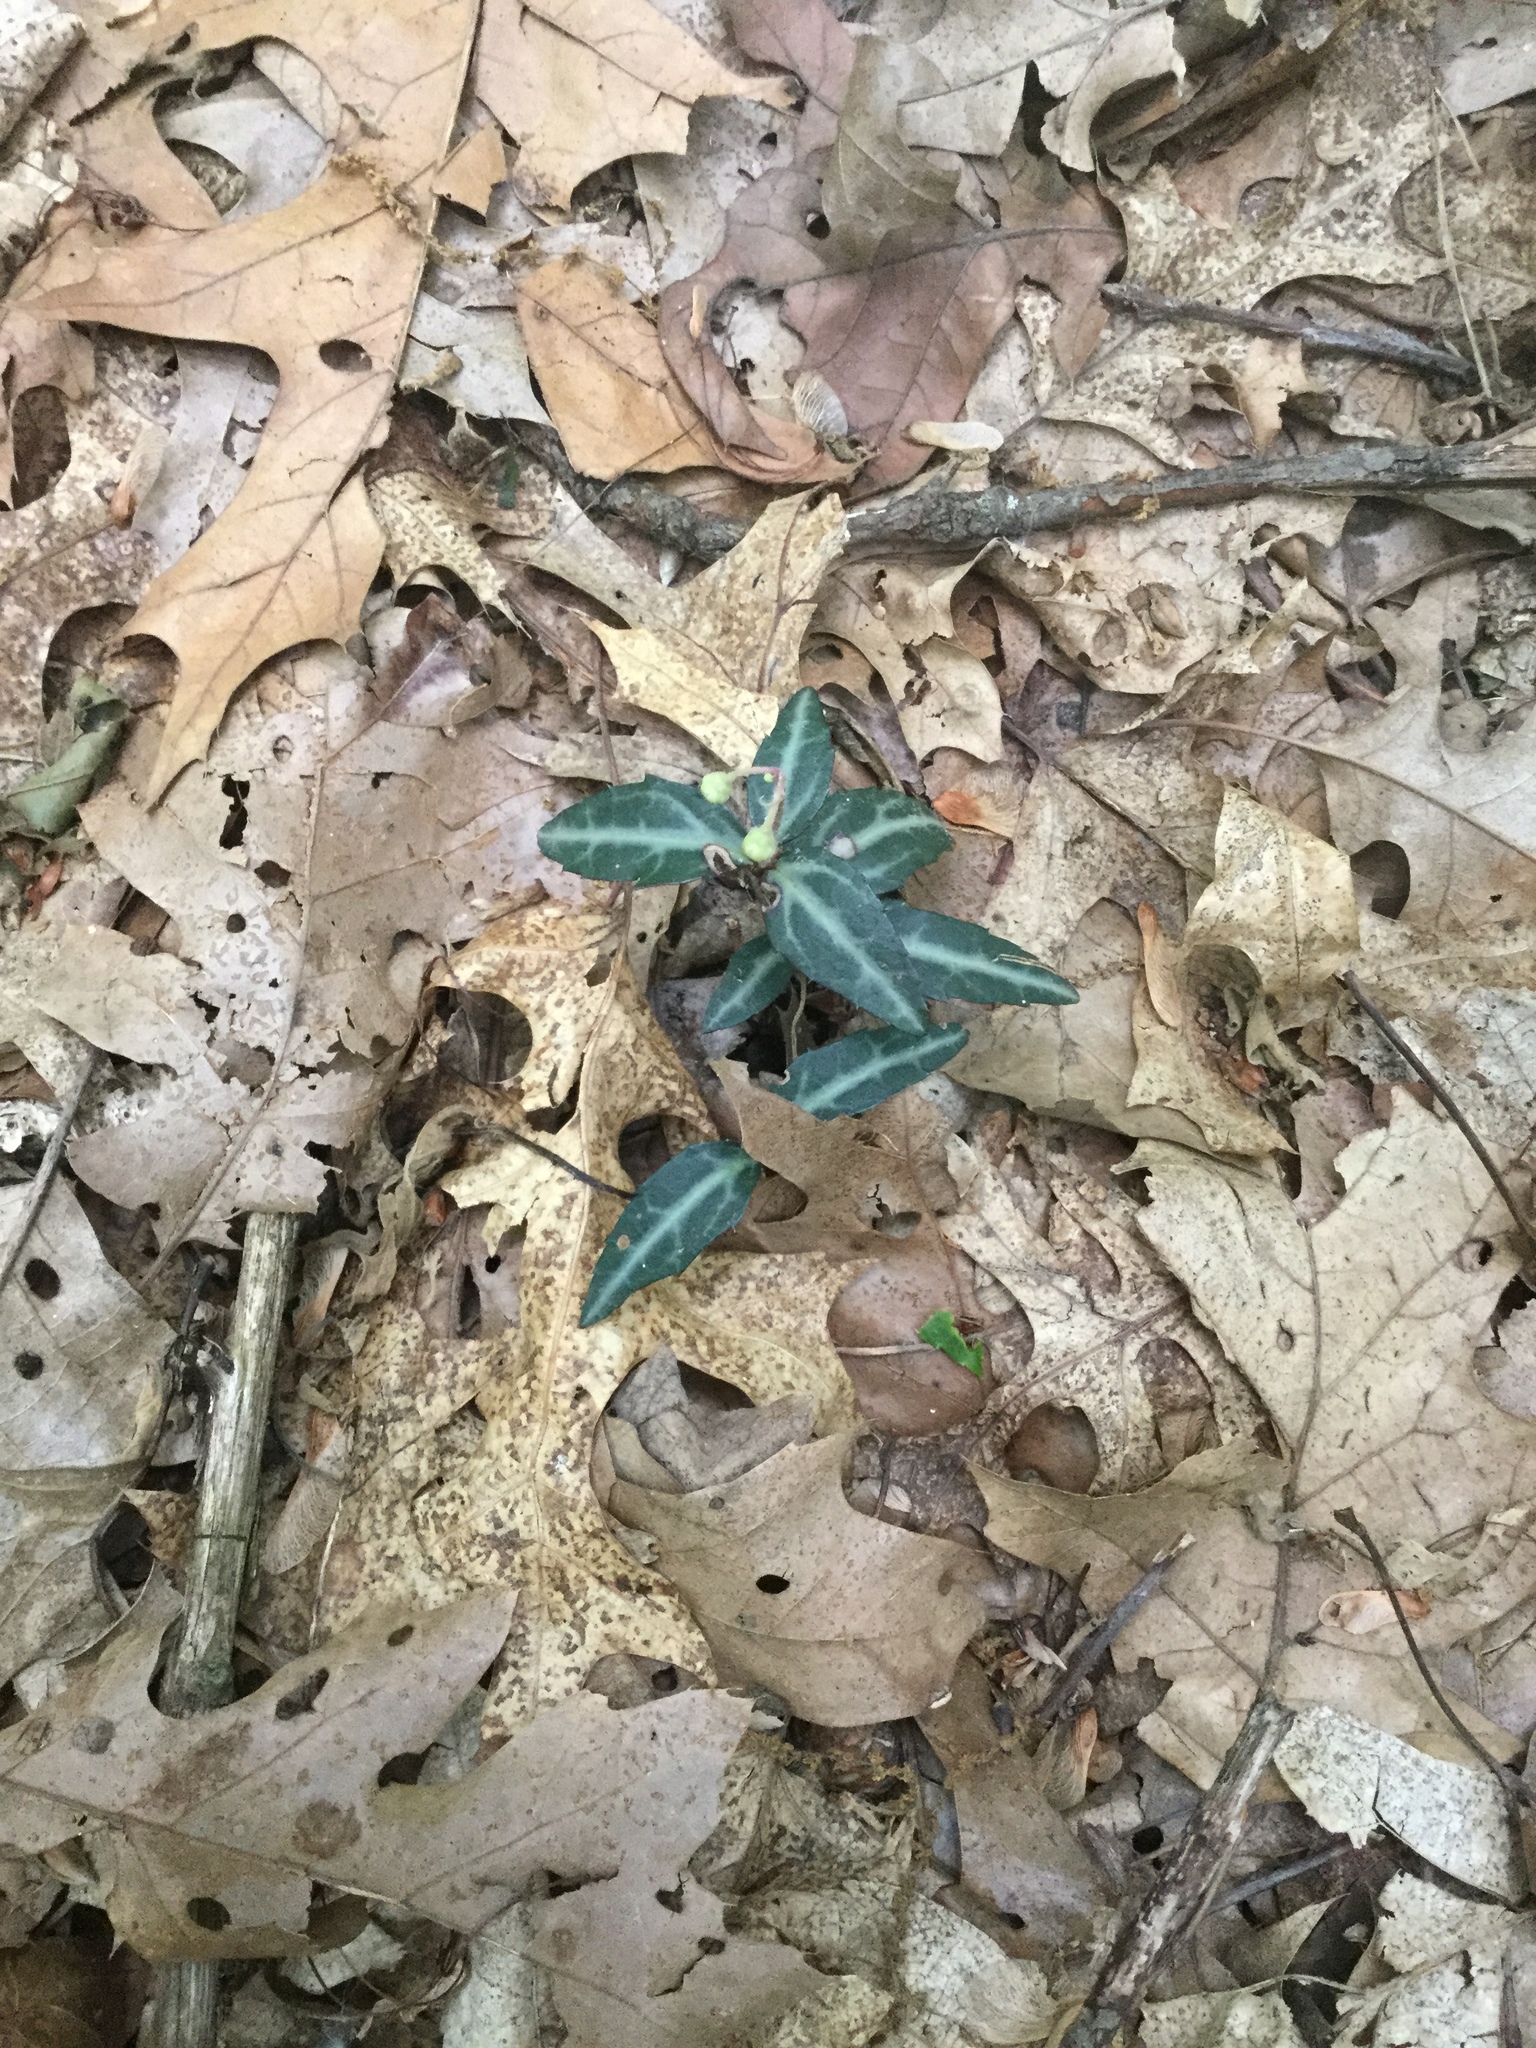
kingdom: Plantae
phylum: Tracheophyta
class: Magnoliopsida
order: Ericales
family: Ericaceae
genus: Chimaphila
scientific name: Chimaphila maculata
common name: Spotted pipsissewa
